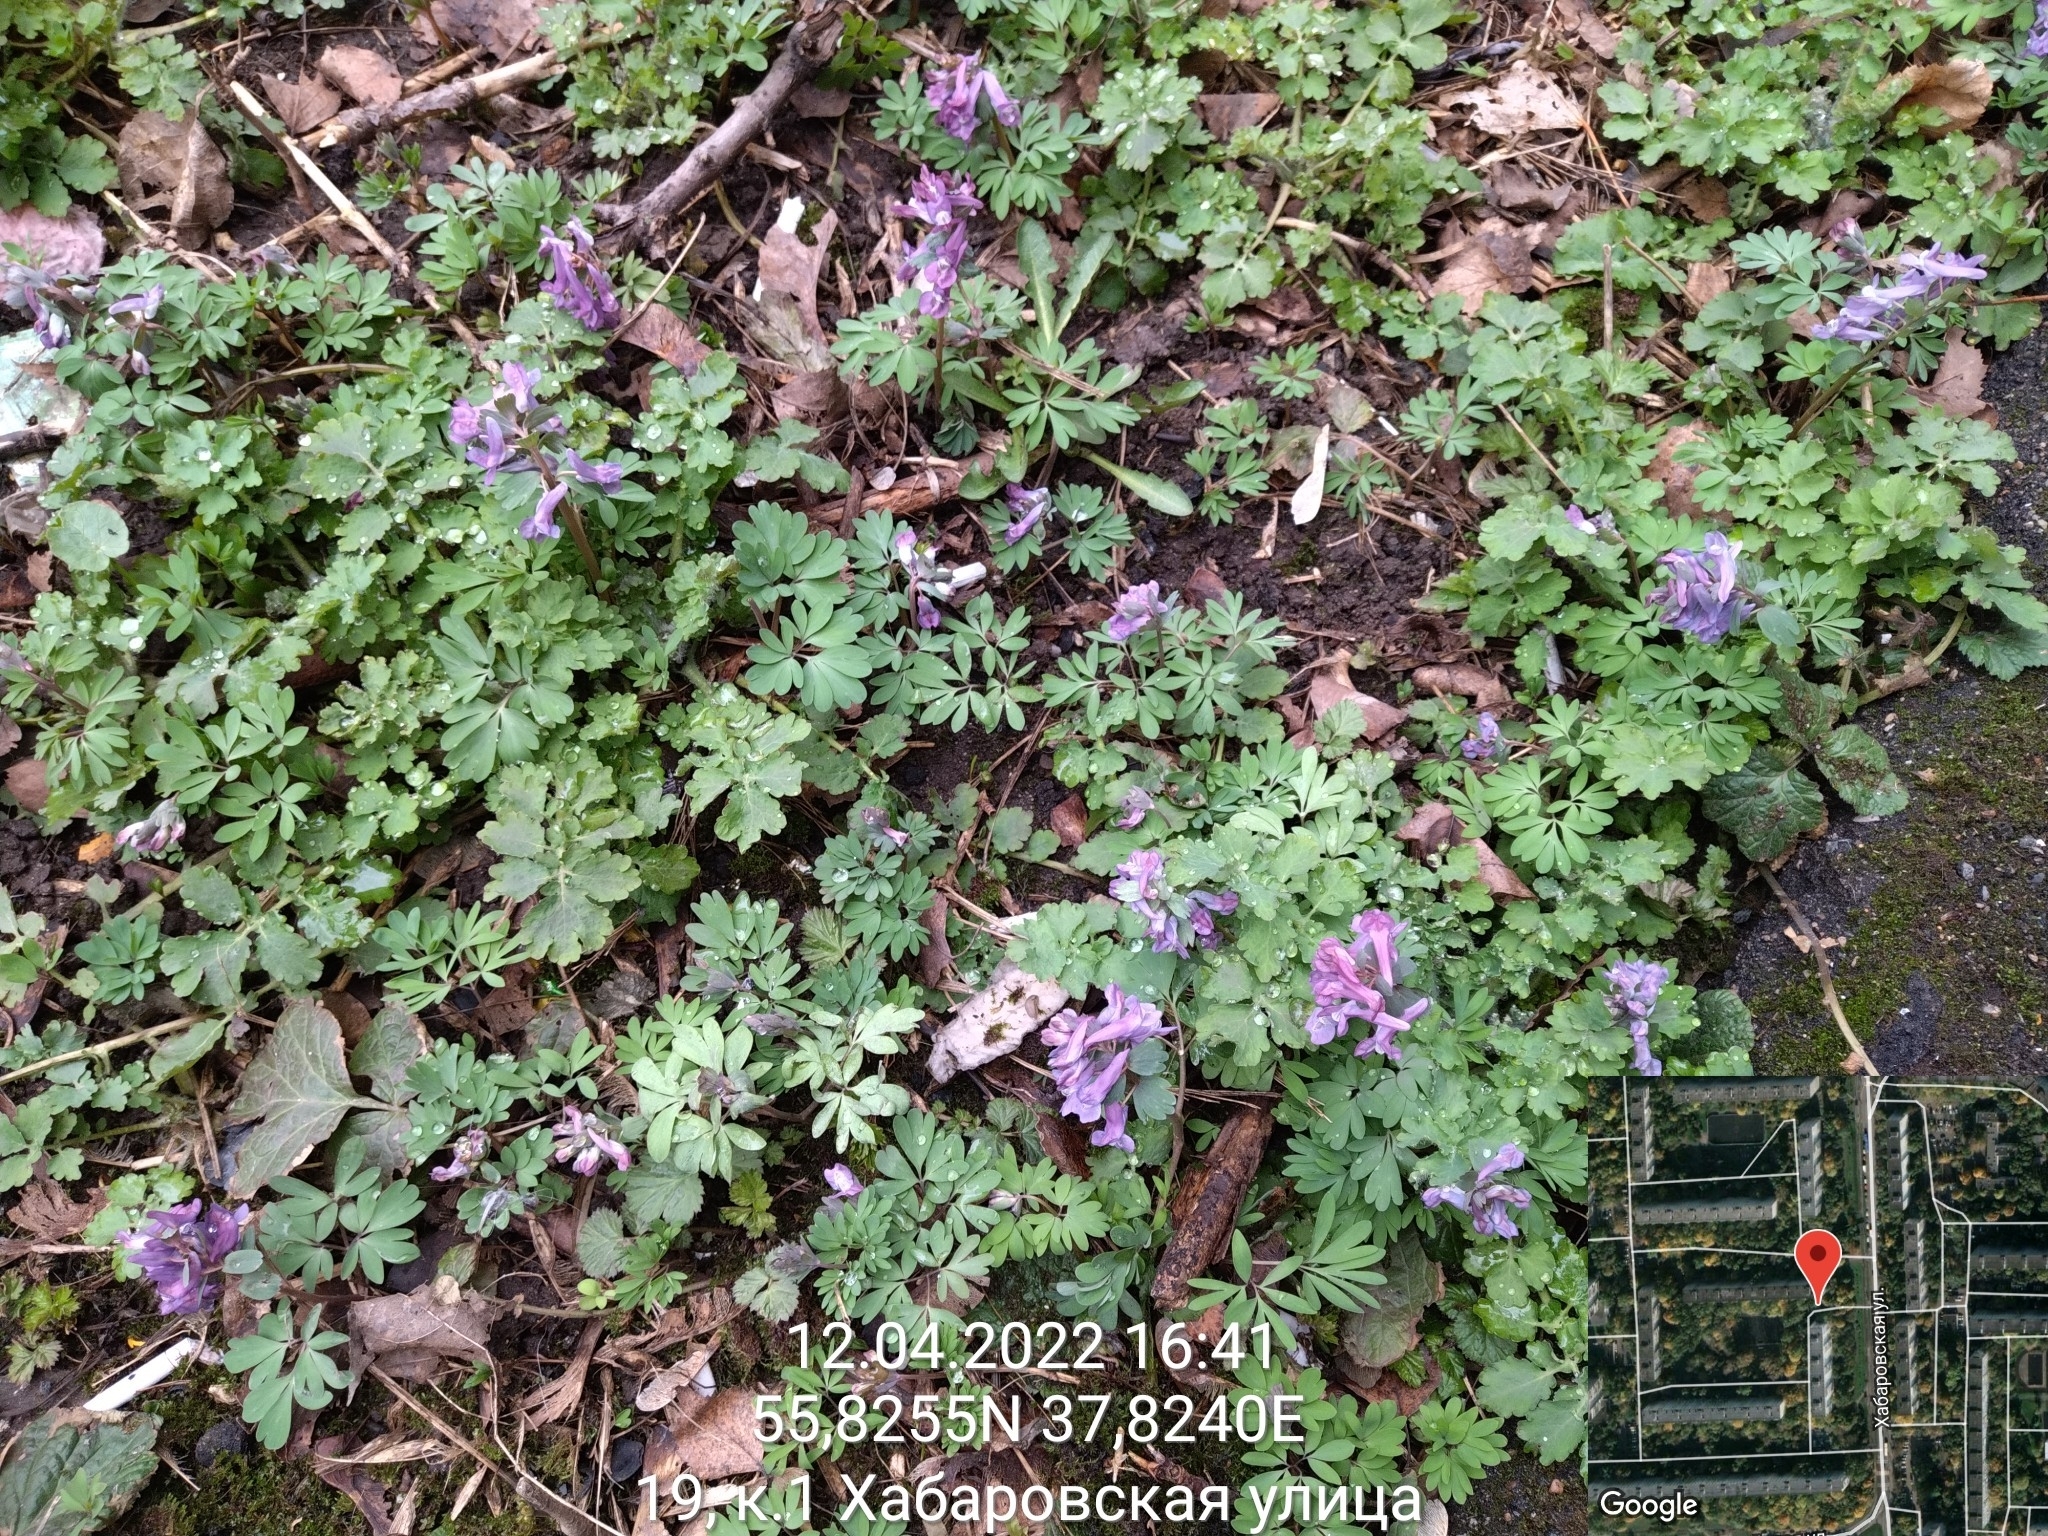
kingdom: Plantae
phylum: Tracheophyta
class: Magnoliopsida
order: Ranunculales
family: Papaveraceae
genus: Corydalis
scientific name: Corydalis solida
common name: Bird-in-a-bush
